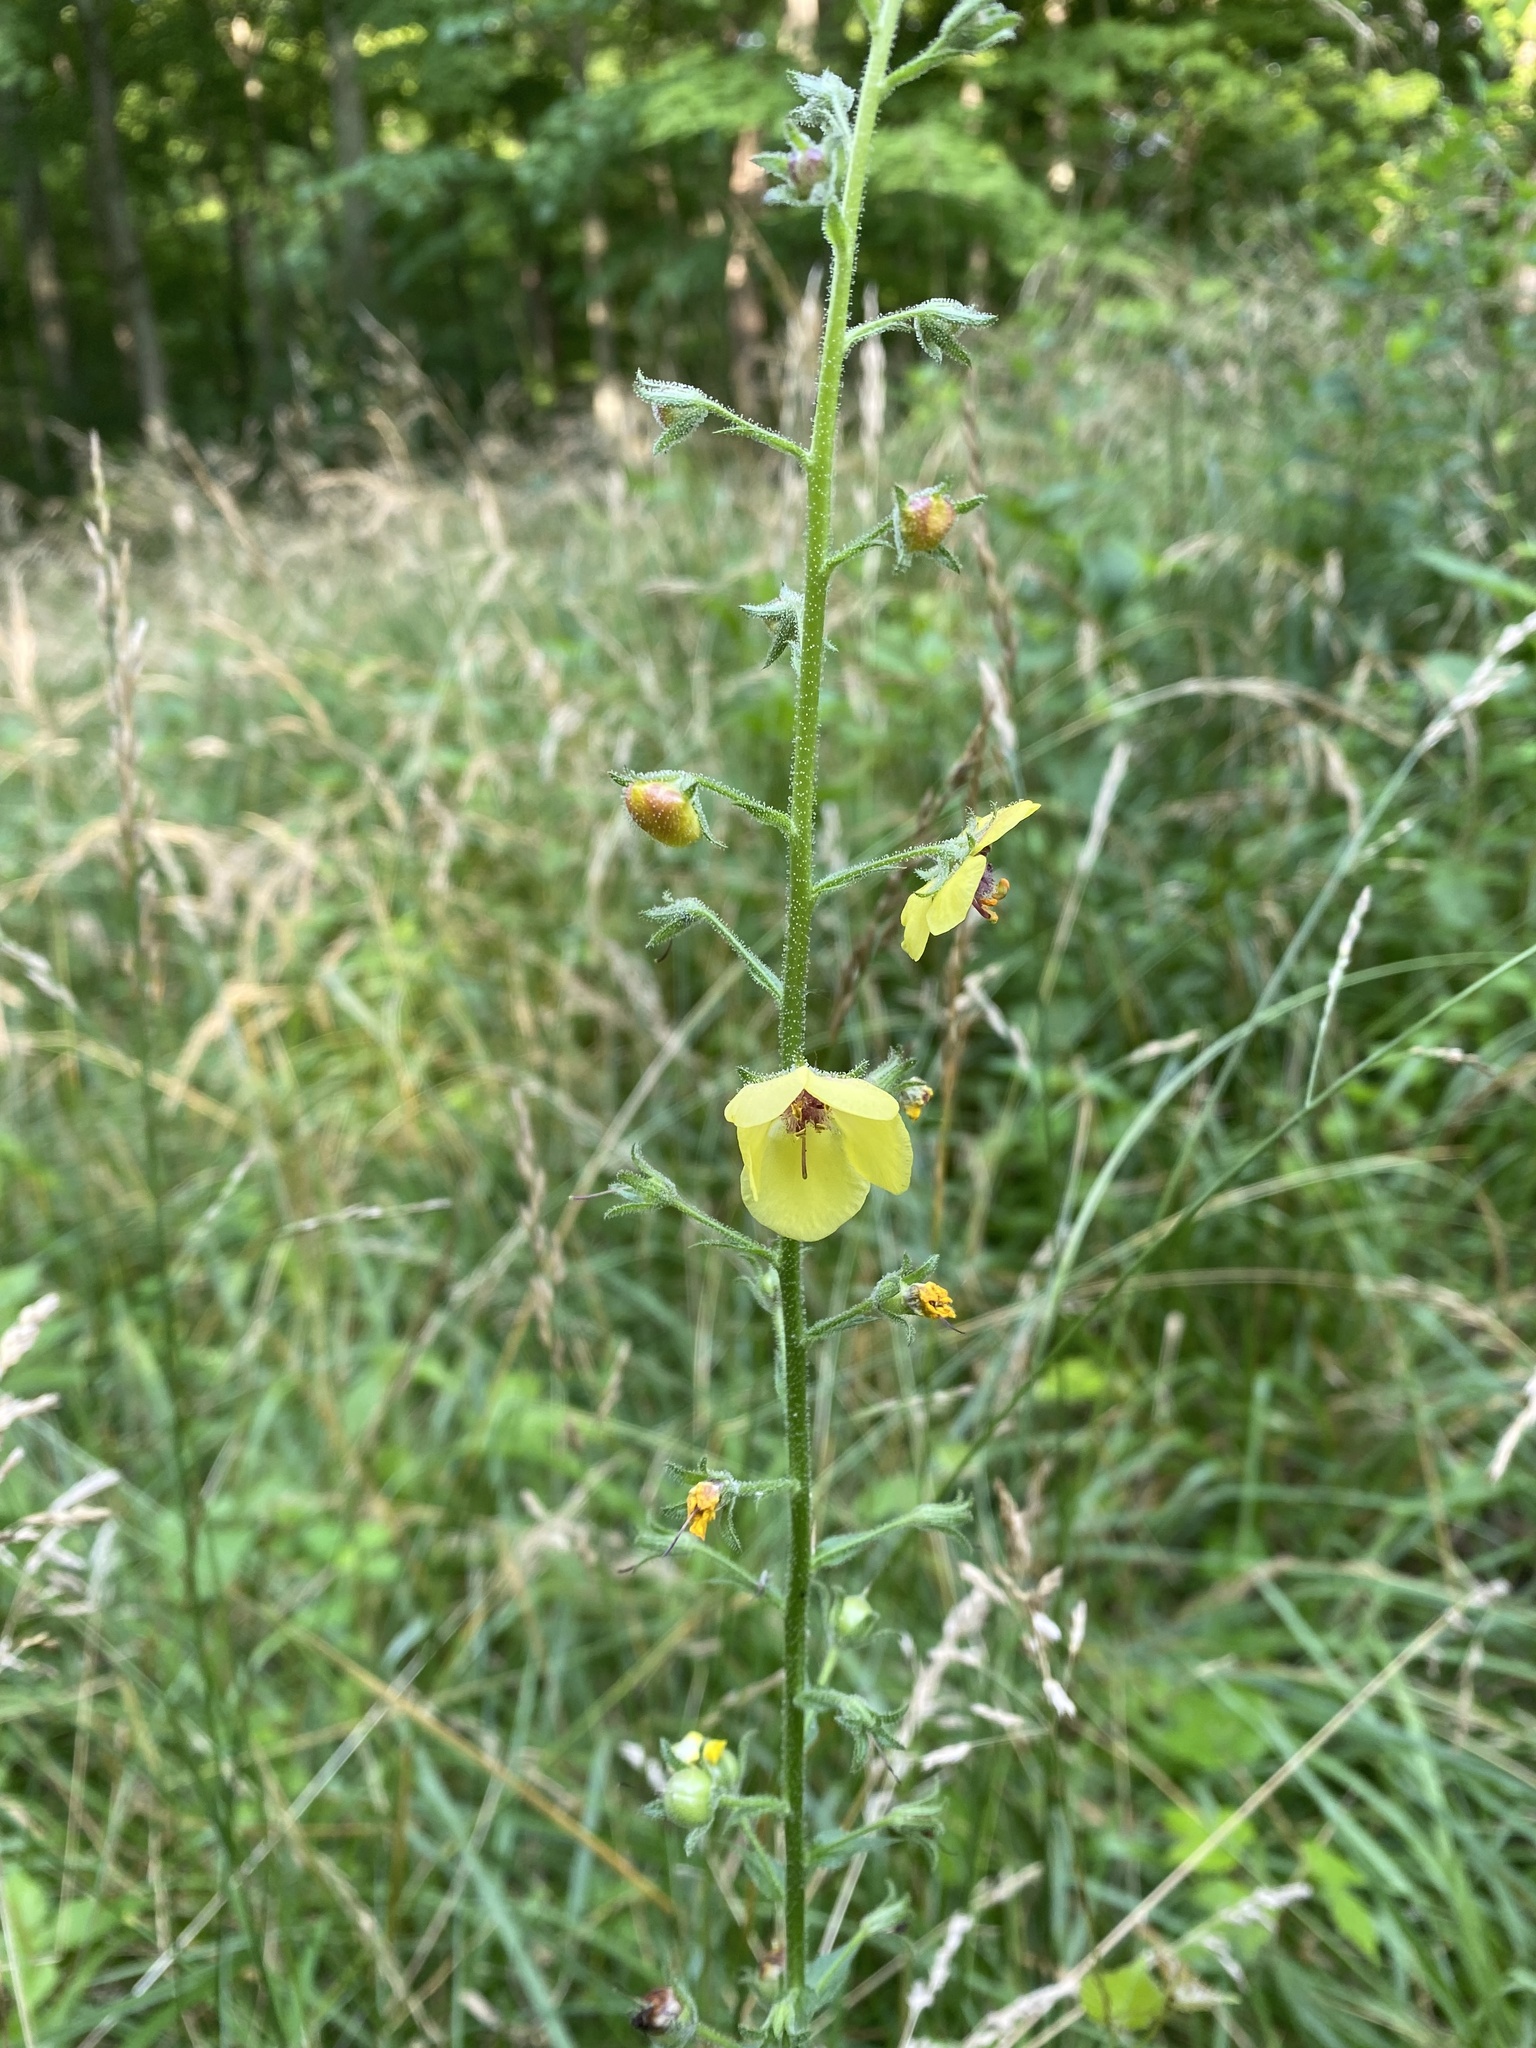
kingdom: Plantae
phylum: Tracheophyta
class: Magnoliopsida
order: Lamiales
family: Scrophulariaceae
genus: Verbascum
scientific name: Verbascum blattaria
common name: Moth mullein
